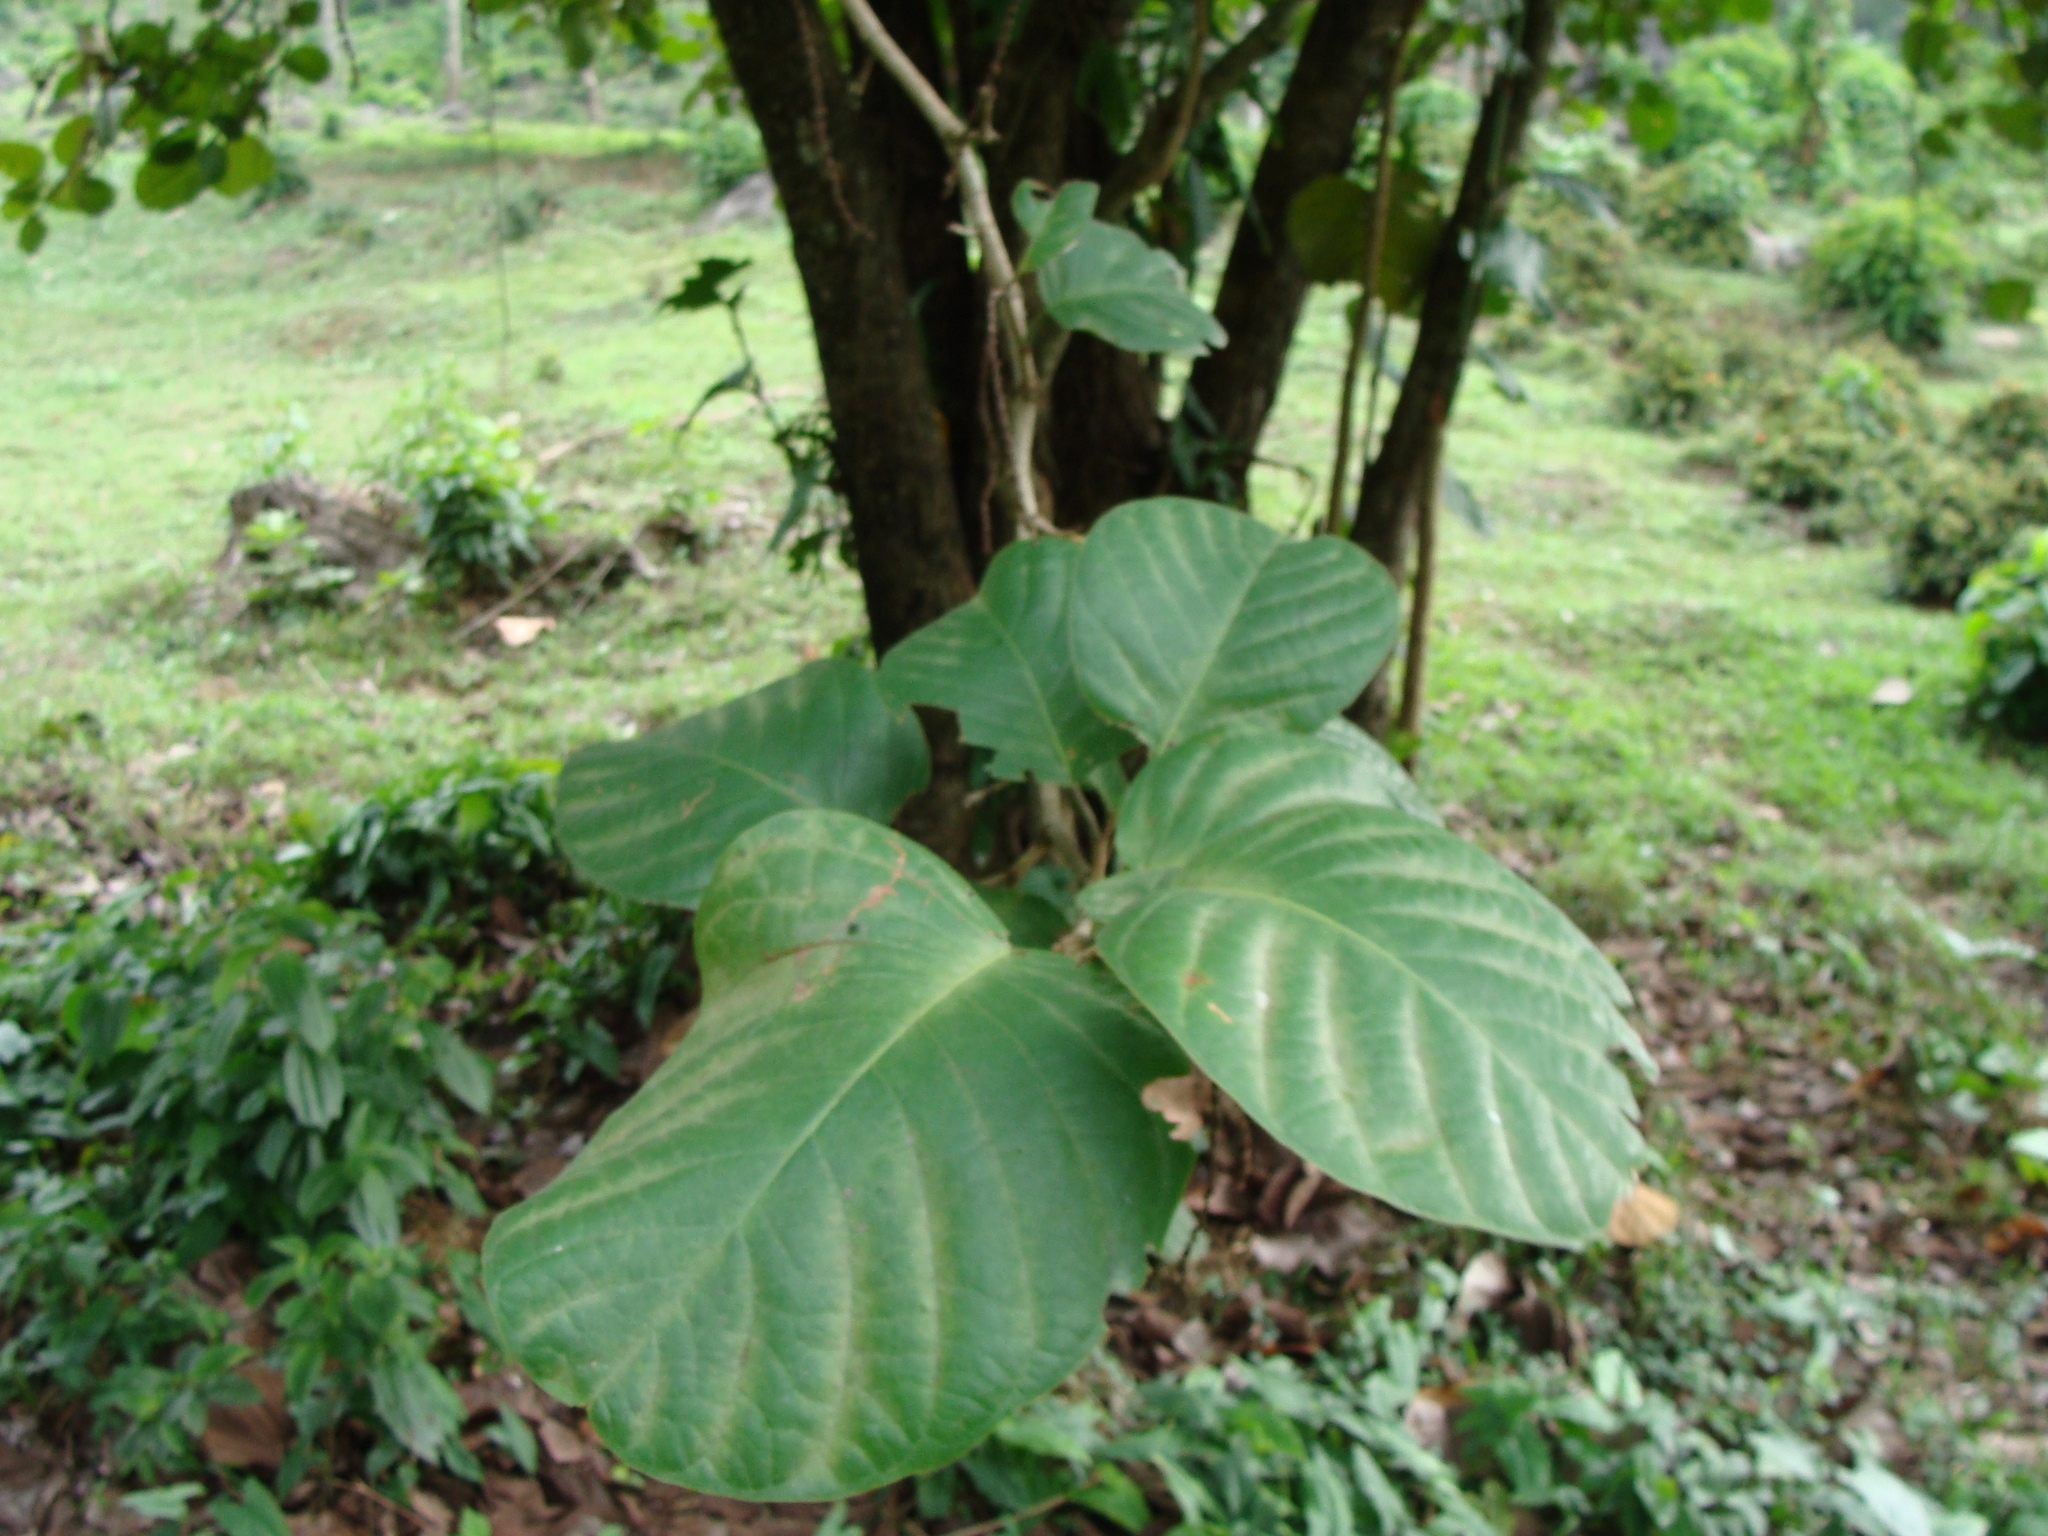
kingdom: Plantae
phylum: Tracheophyta
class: Magnoliopsida
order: Caryophyllales
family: Polygonaceae
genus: Coccoloba
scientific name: Coccoloba caracasana
